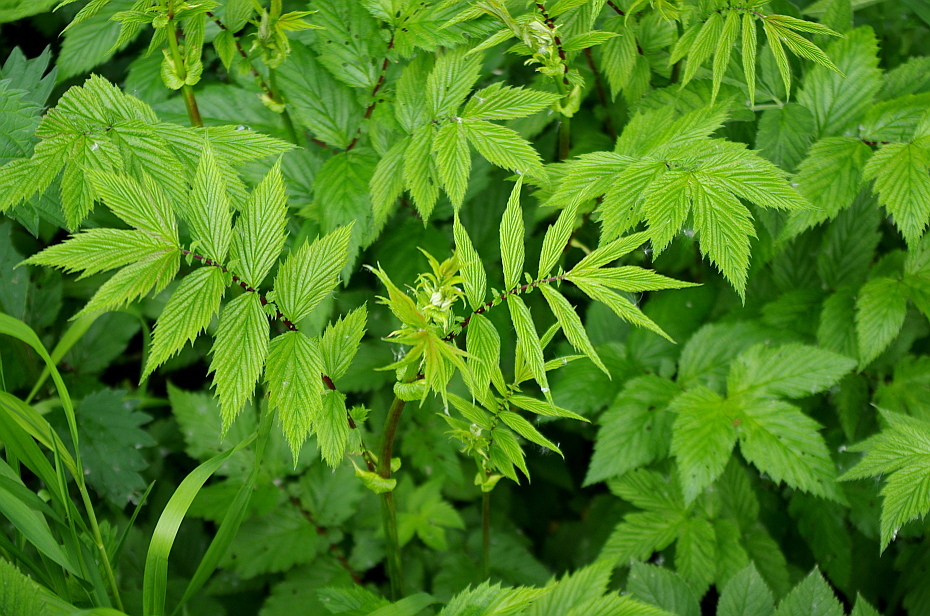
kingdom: Plantae
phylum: Tracheophyta
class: Magnoliopsida
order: Rosales
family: Rosaceae
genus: Filipendula
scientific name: Filipendula ulmaria
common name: Meadowsweet
